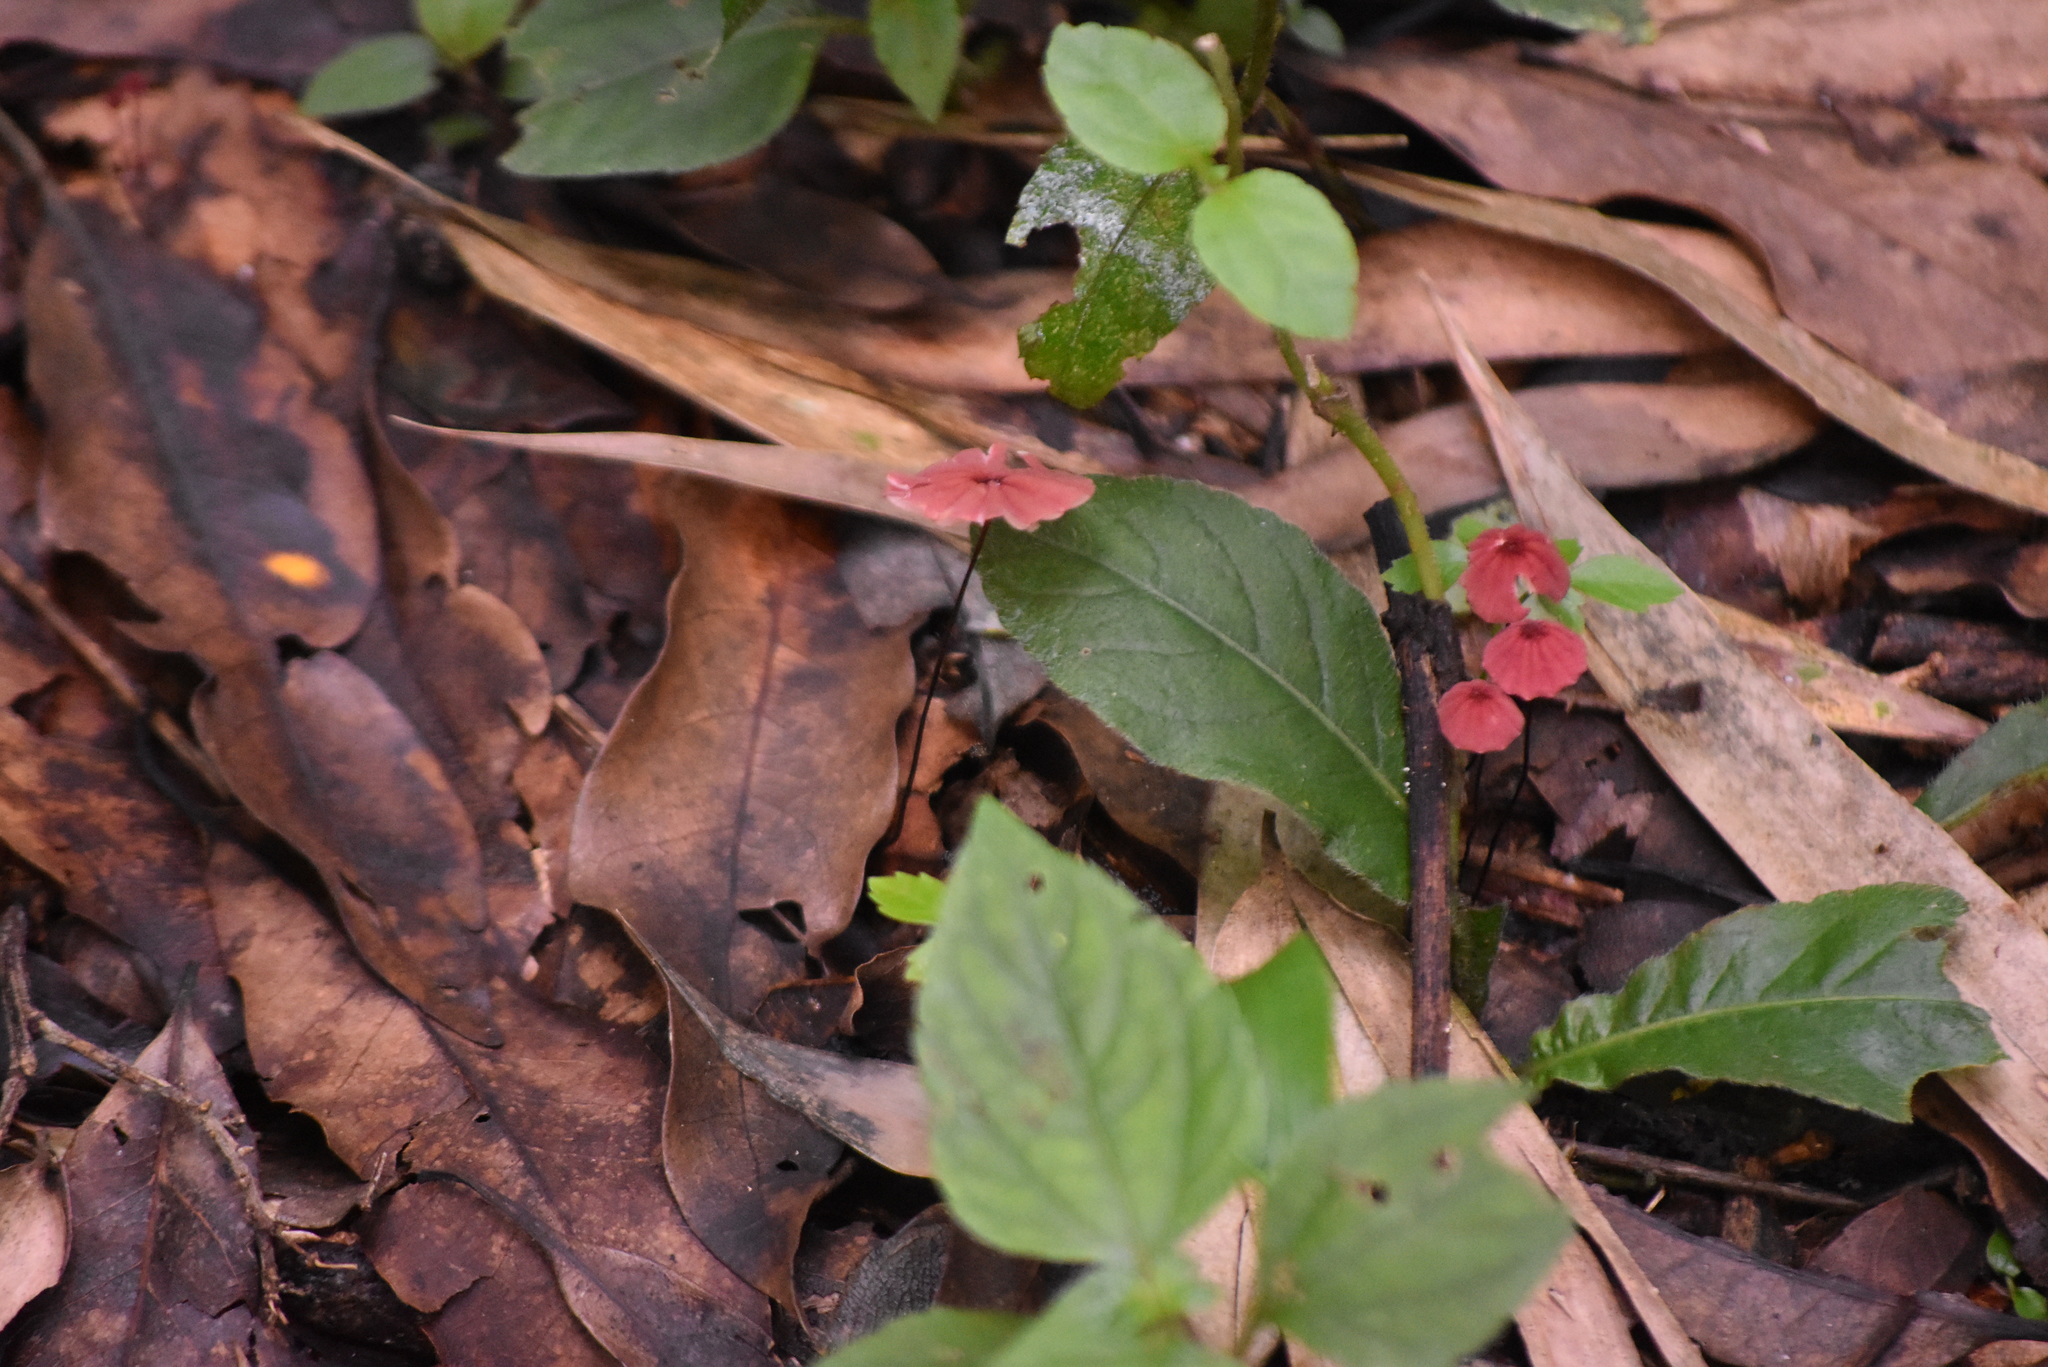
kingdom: Fungi
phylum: Basidiomycota
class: Agaricomycetes
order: Agaricales
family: Marasmiaceae
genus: Marasmius
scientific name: Marasmius haematocephalus
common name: Purple pinwheel
